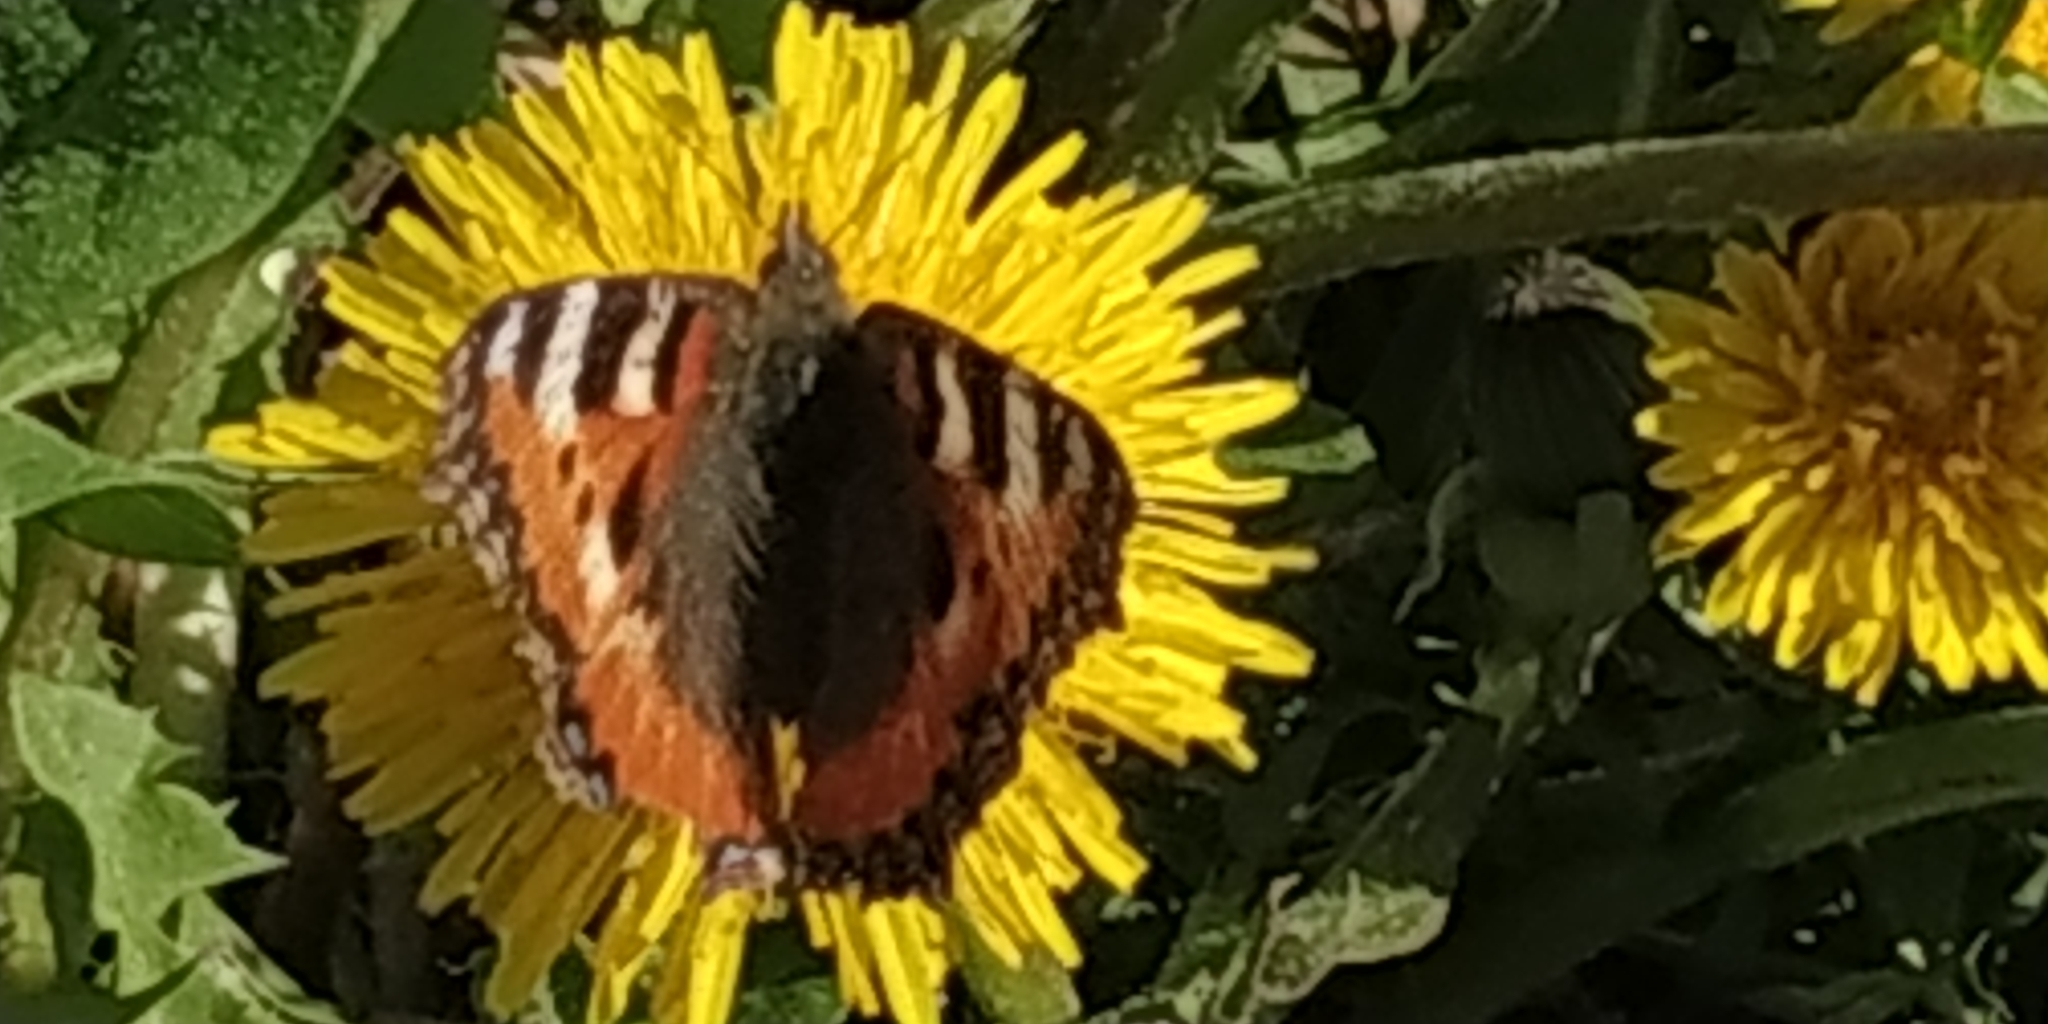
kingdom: Animalia
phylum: Arthropoda
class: Insecta
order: Lepidoptera
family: Nymphalidae
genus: Aglais
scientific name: Aglais urticae
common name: Small tortoiseshell
